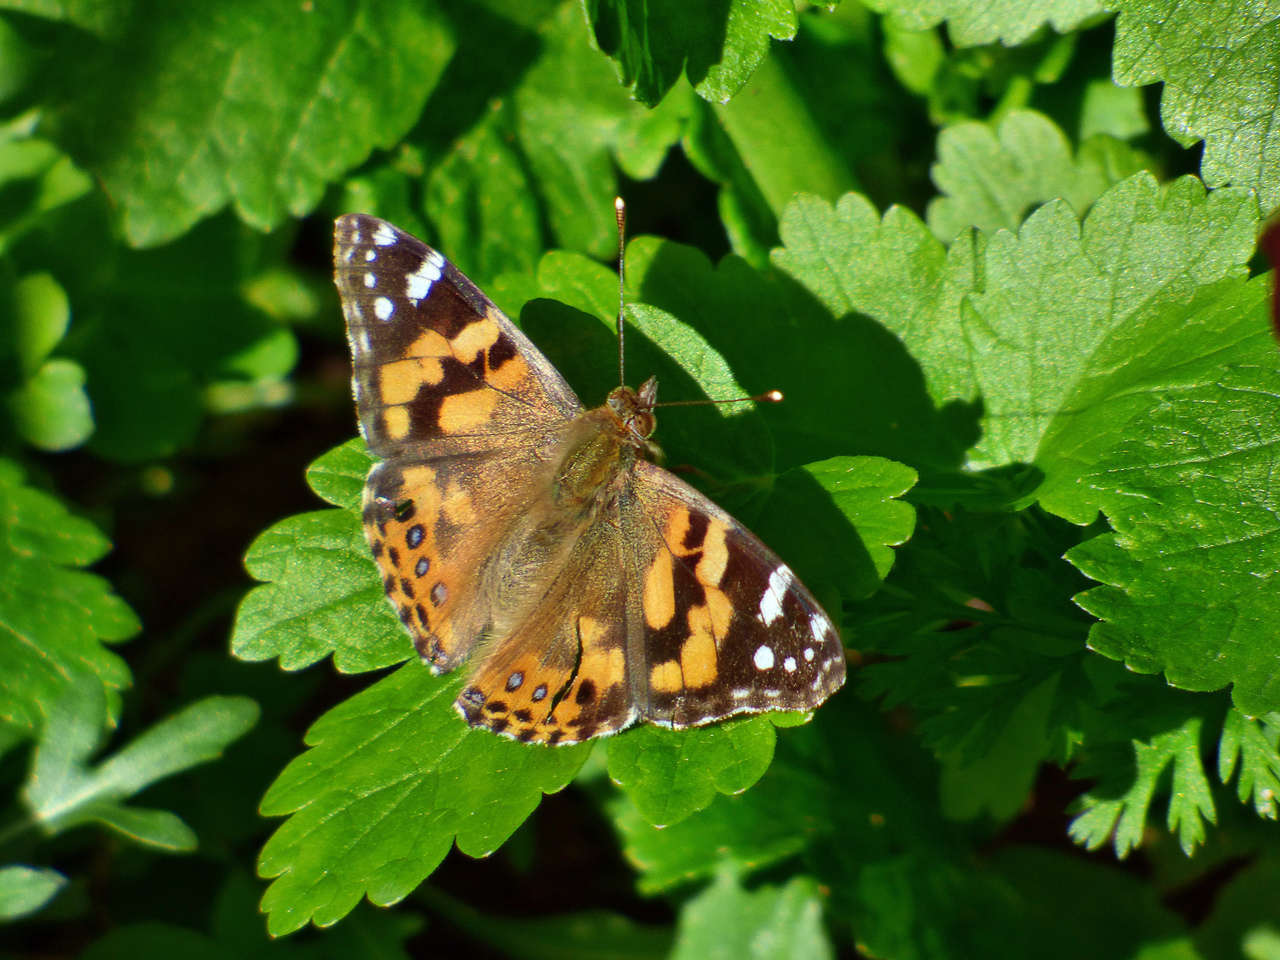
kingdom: Animalia
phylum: Arthropoda
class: Insecta
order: Lepidoptera
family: Nymphalidae
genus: Vanessa
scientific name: Vanessa kershawi
